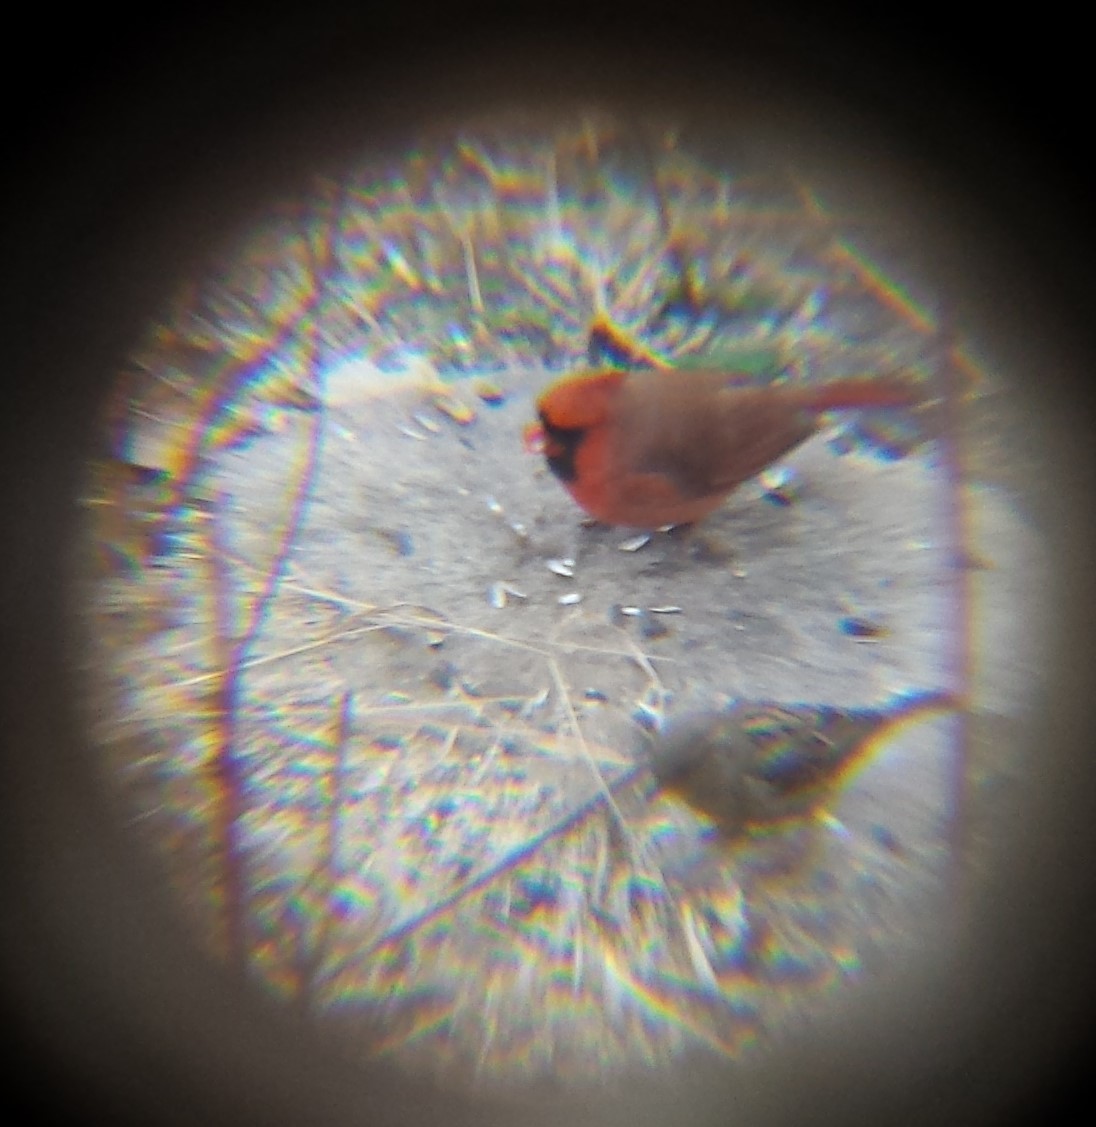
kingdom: Animalia
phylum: Chordata
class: Aves
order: Passeriformes
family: Cardinalidae
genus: Cardinalis
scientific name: Cardinalis cardinalis
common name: Northern cardinal
